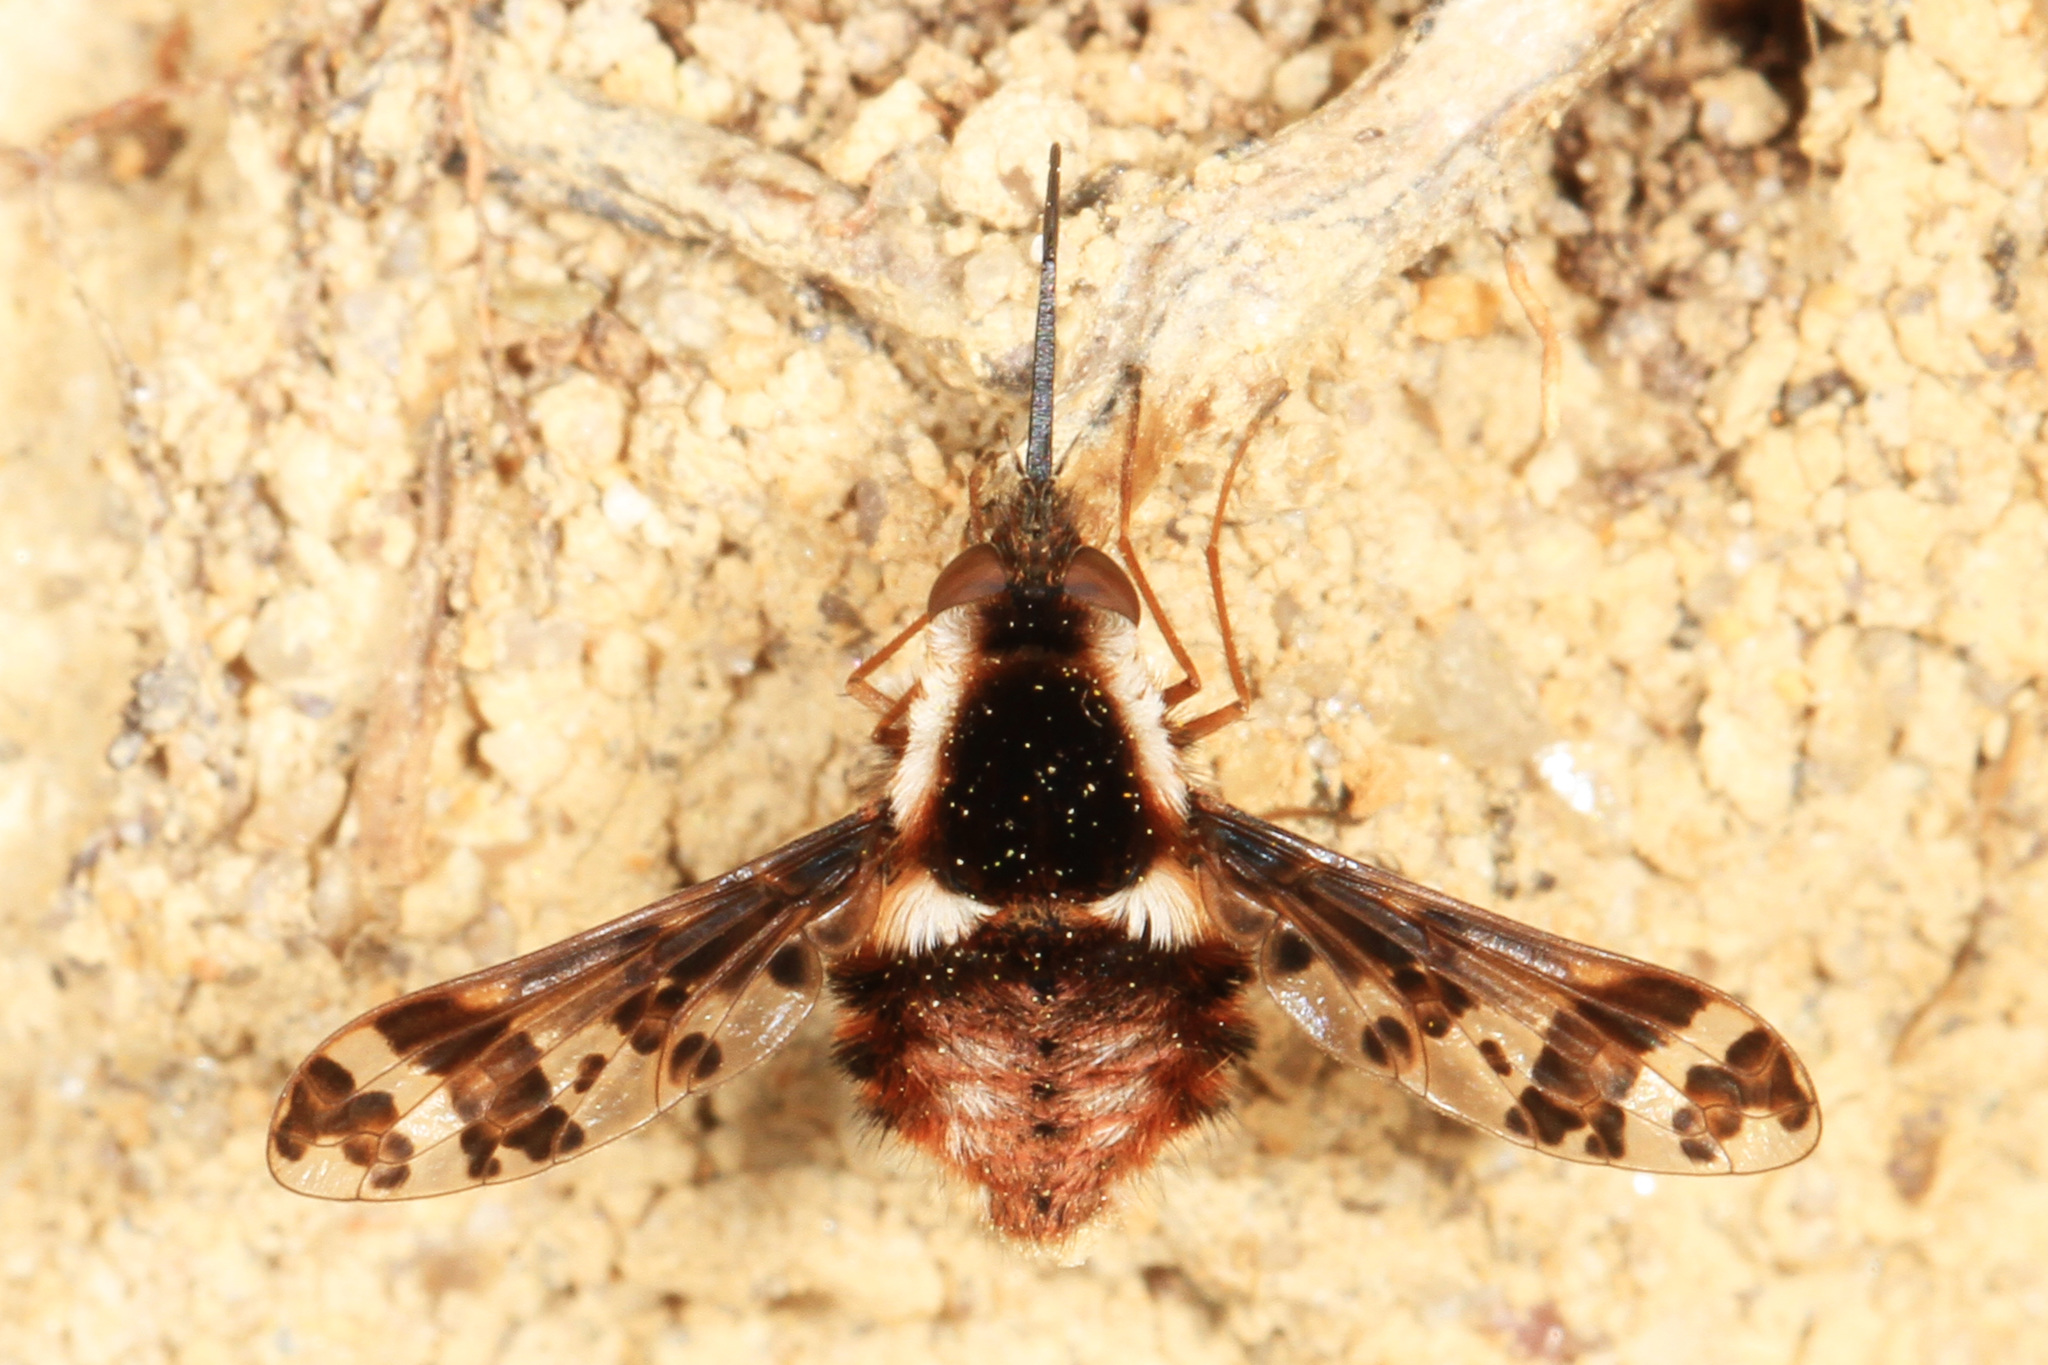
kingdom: Animalia
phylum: Arthropoda
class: Insecta
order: Diptera
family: Bombyliidae
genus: Bombylius
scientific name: Bombylius pulchellus
